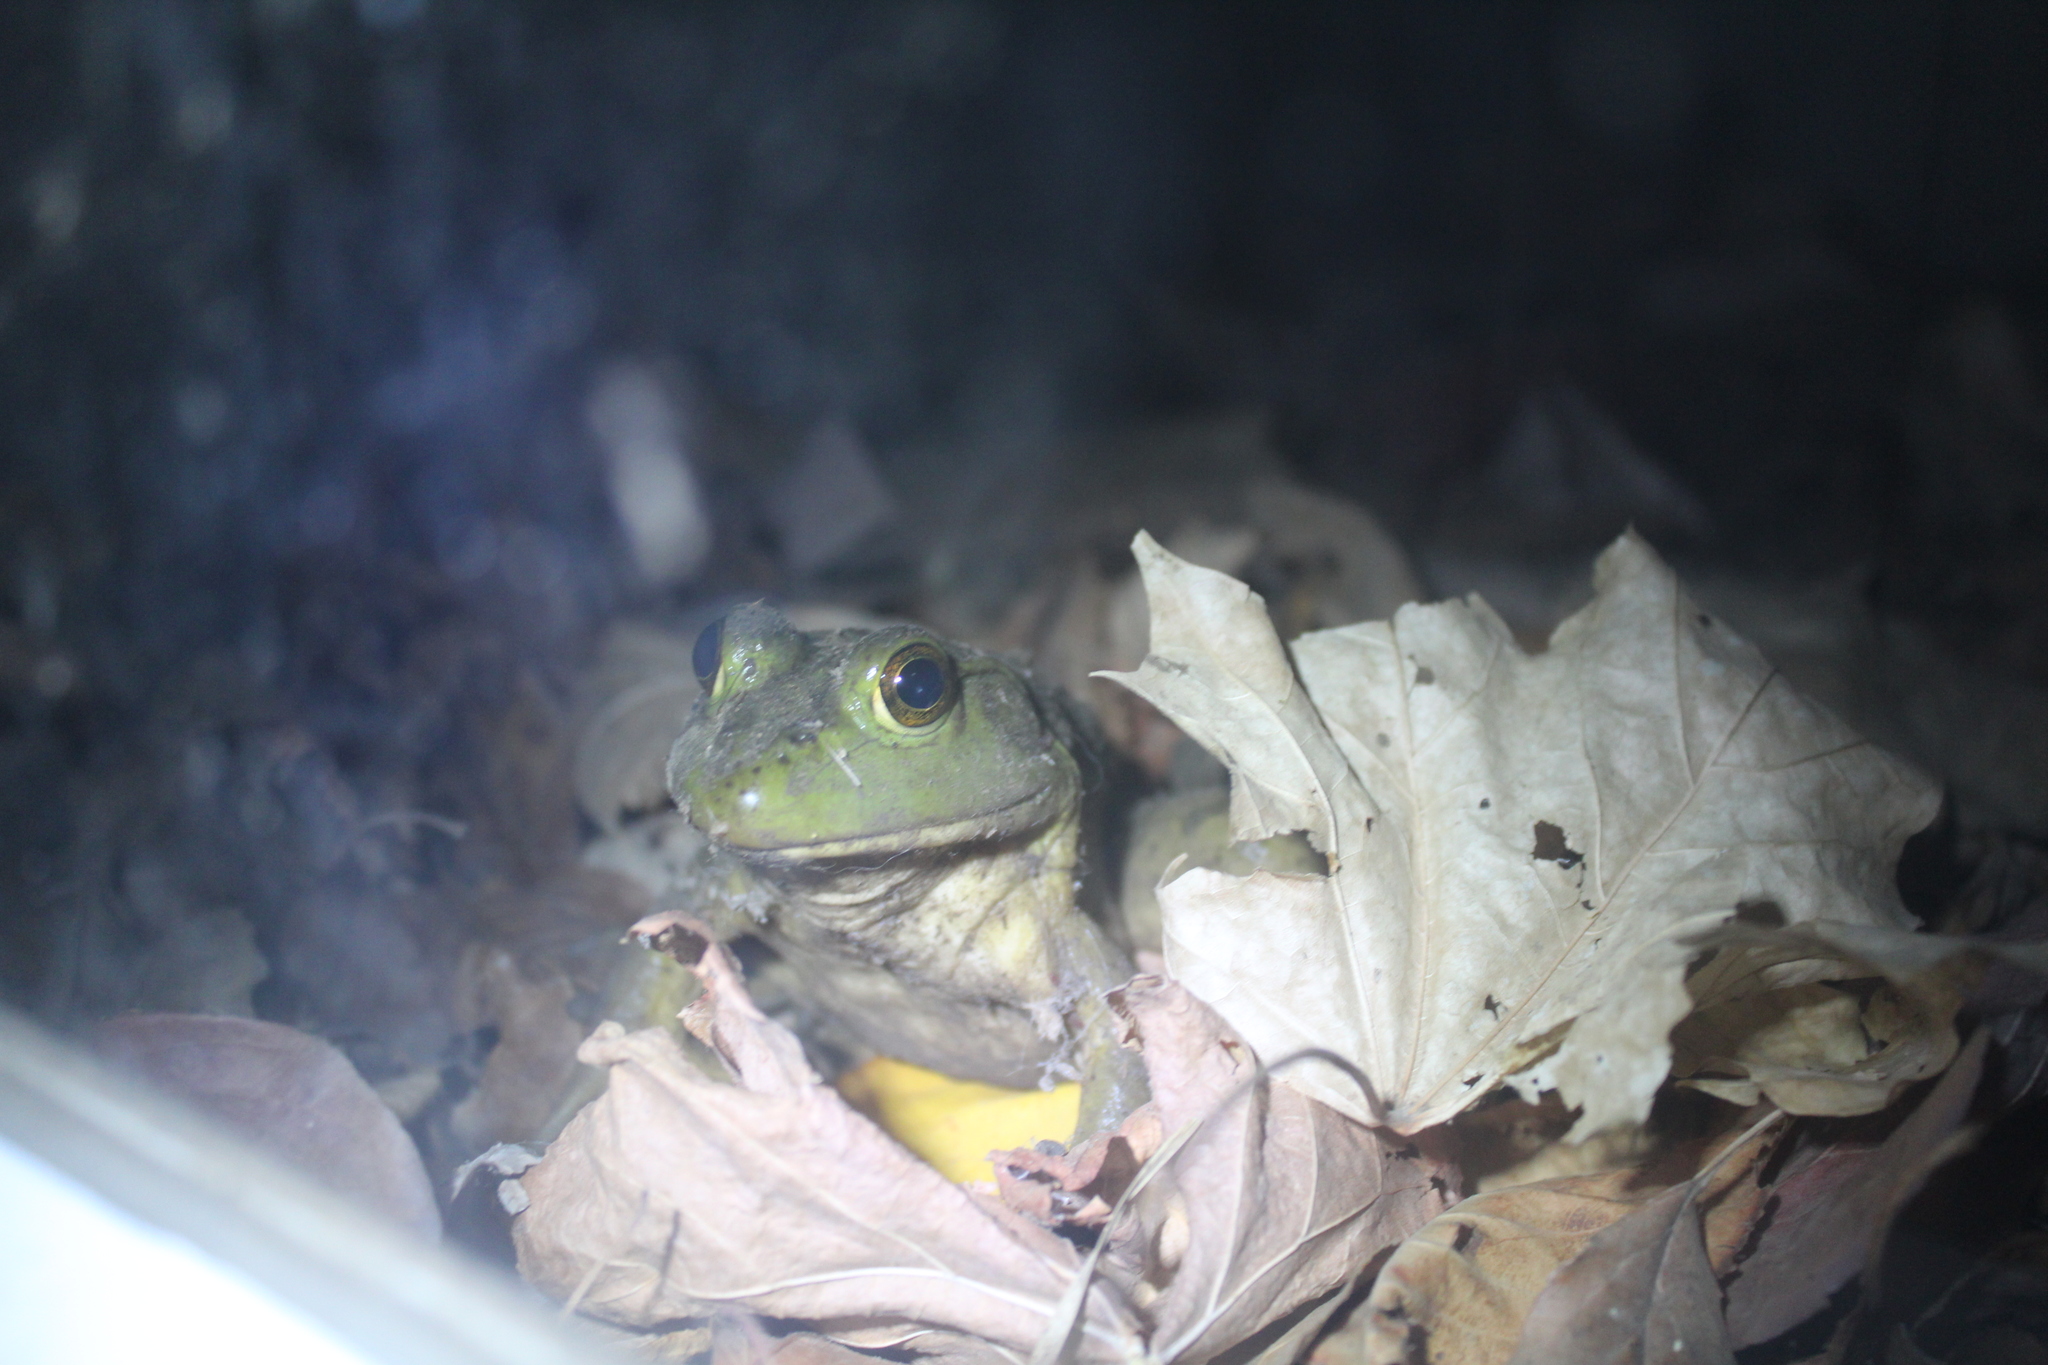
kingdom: Animalia
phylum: Chordata
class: Amphibia
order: Anura
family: Ranidae
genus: Lithobates
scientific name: Lithobates catesbeianus
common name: American bullfrog
